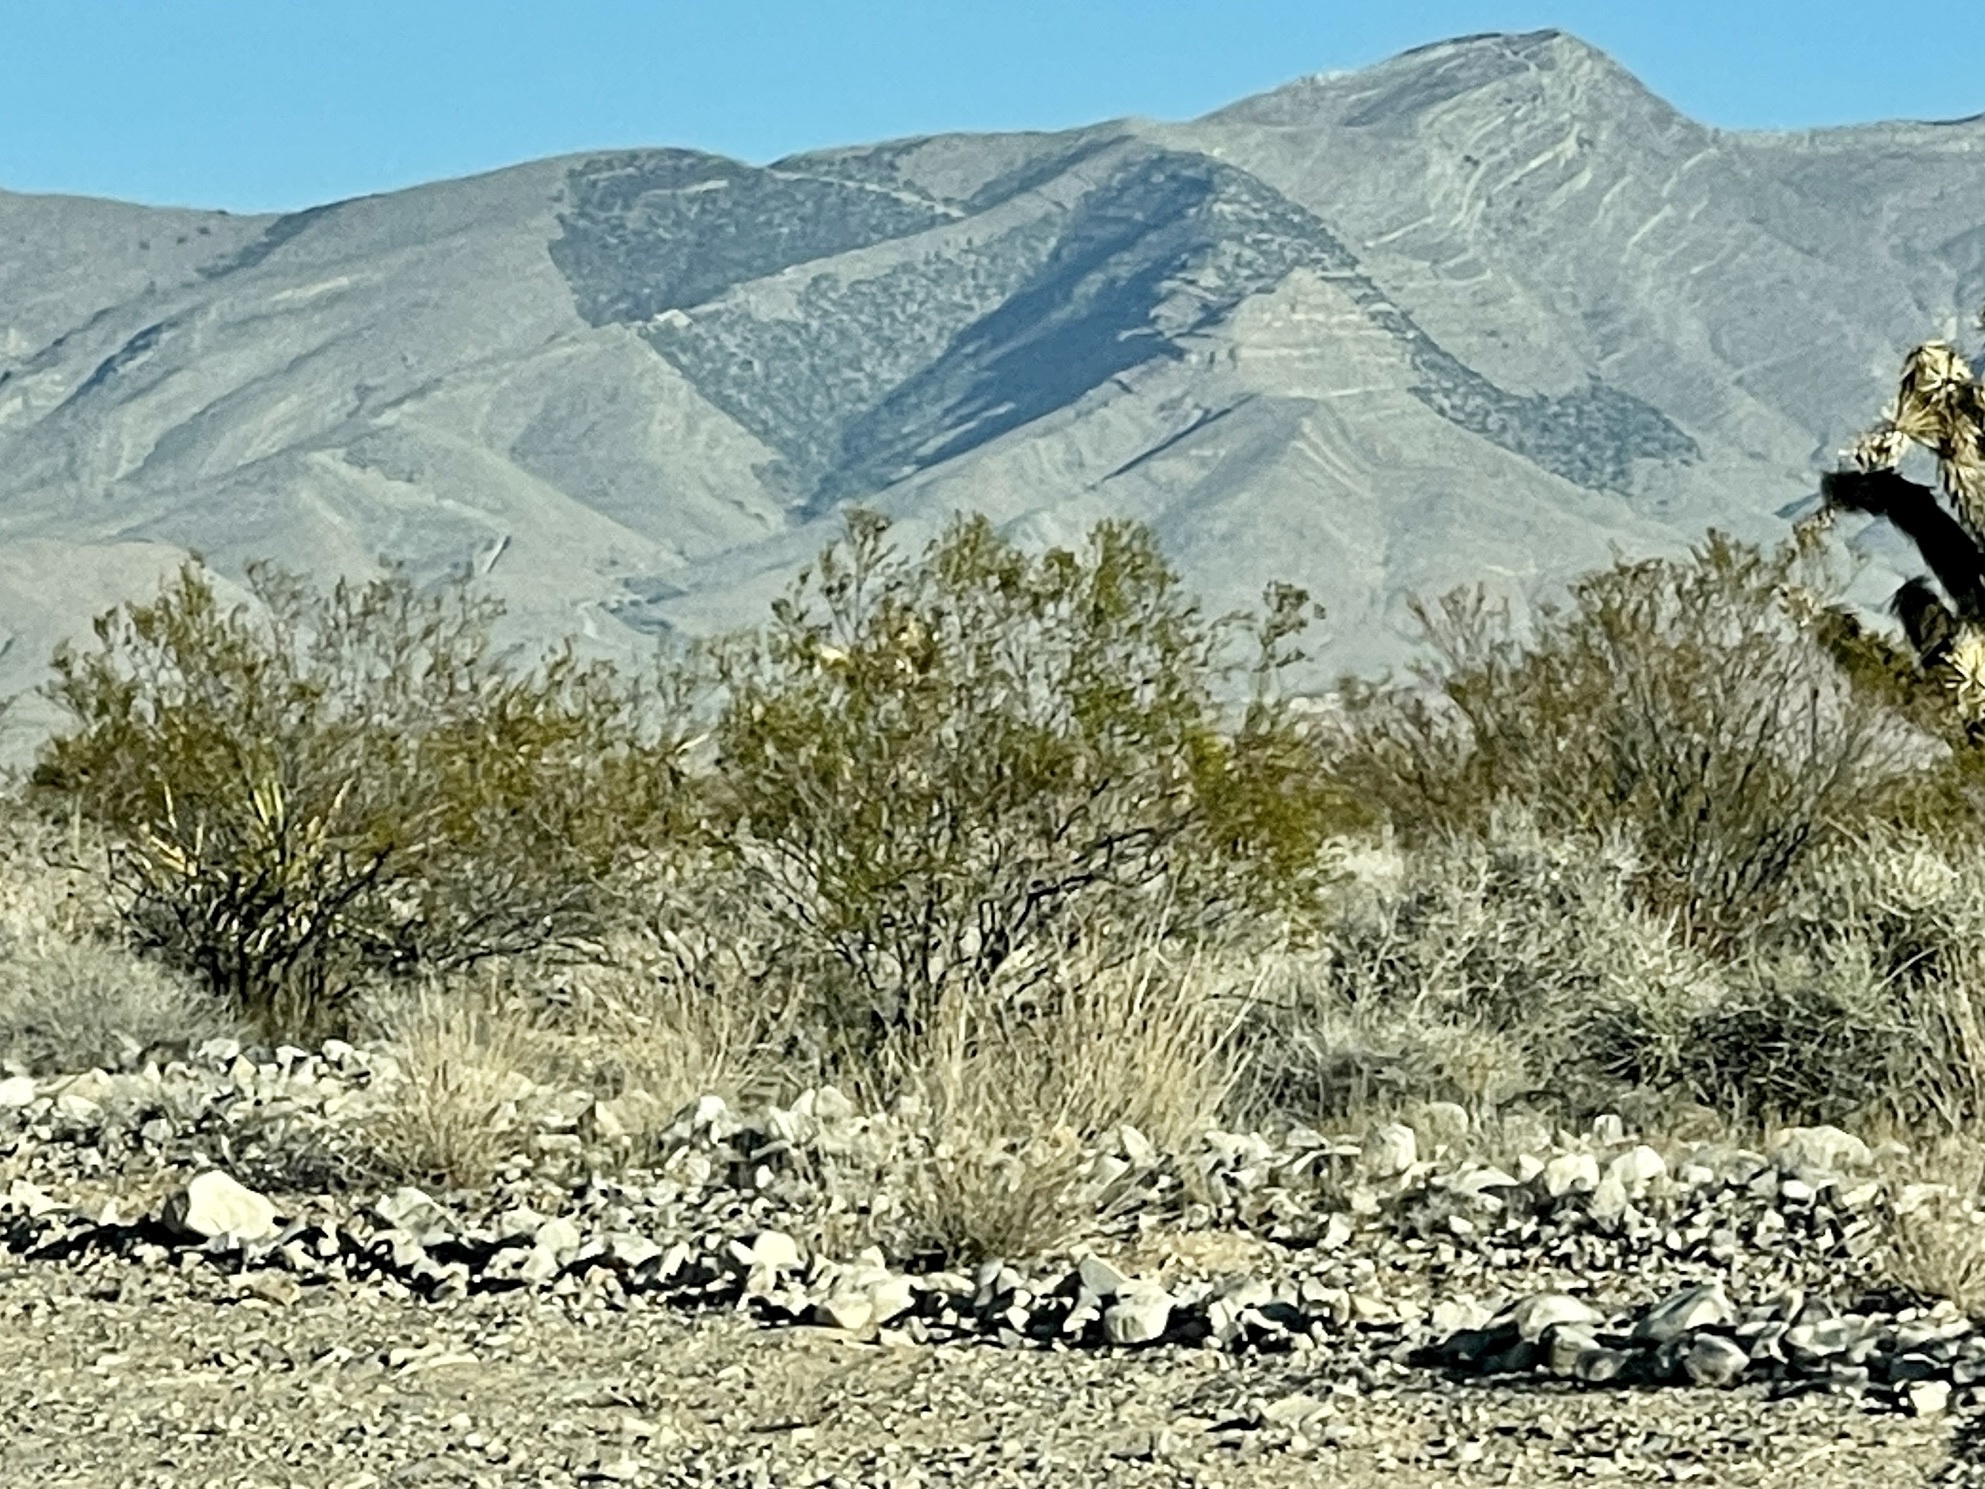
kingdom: Plantae
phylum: Tracheophyta
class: Magnoliopsida
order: Zygophyllales
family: Zygophyllaceae
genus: Larrea
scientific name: Larrea tridentata
